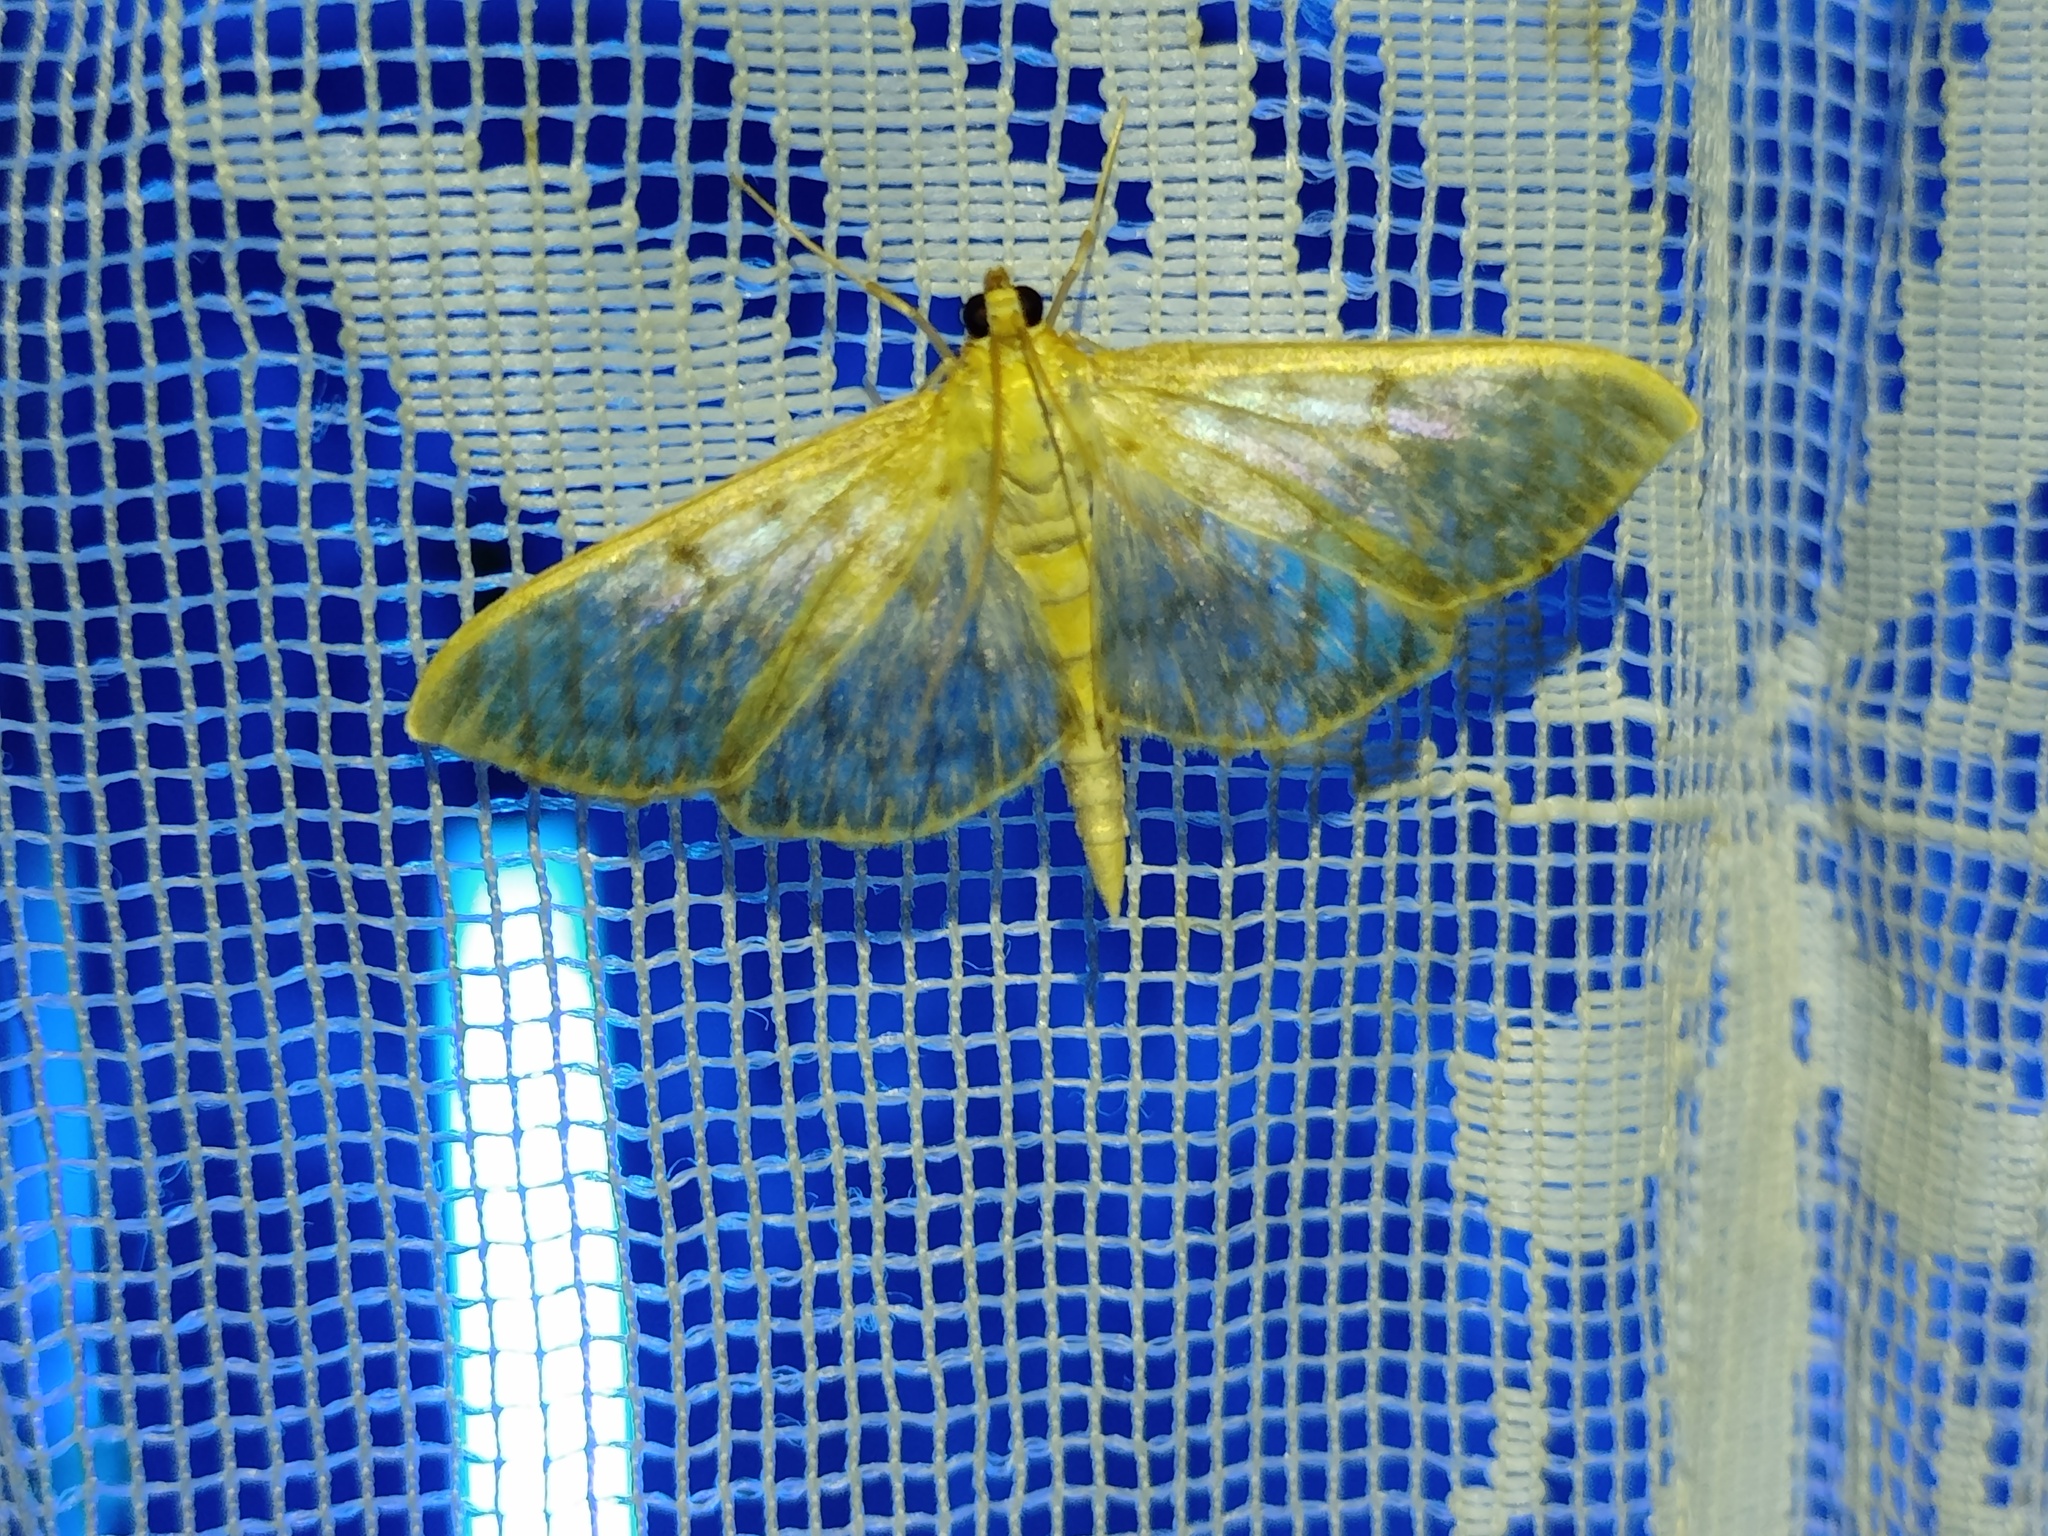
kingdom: Animalia
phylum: Arthropoda
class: Insecta
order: Lepidoptera
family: Crambidae
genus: Patania
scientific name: Patania ruralis
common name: Mother of pearl
